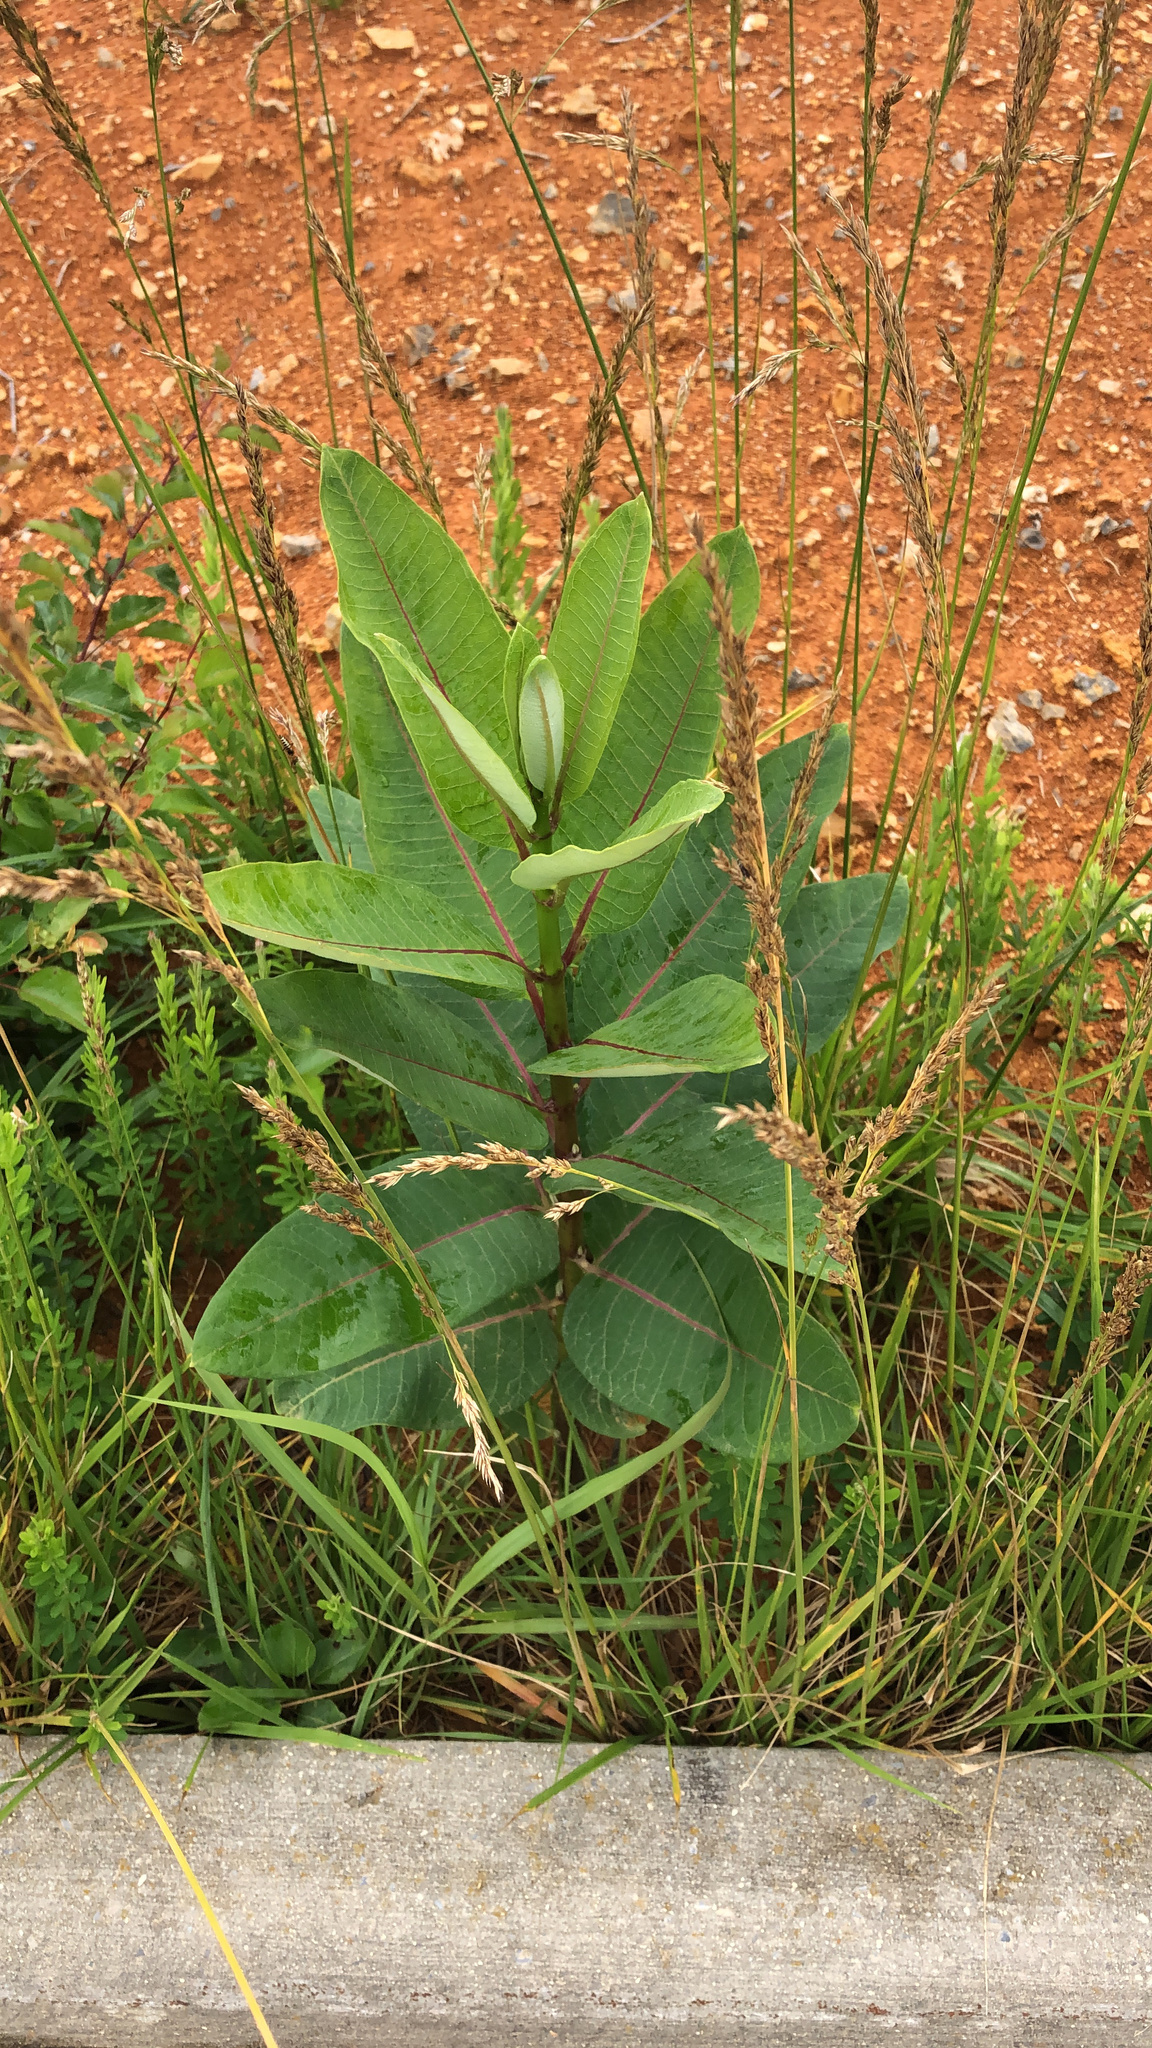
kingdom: Plantae
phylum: Tracheophyta
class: Magnoliopsida
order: Gentianales
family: Apocynaceae
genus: Asclepias
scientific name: Asclepias syriaca
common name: Common milkweed
